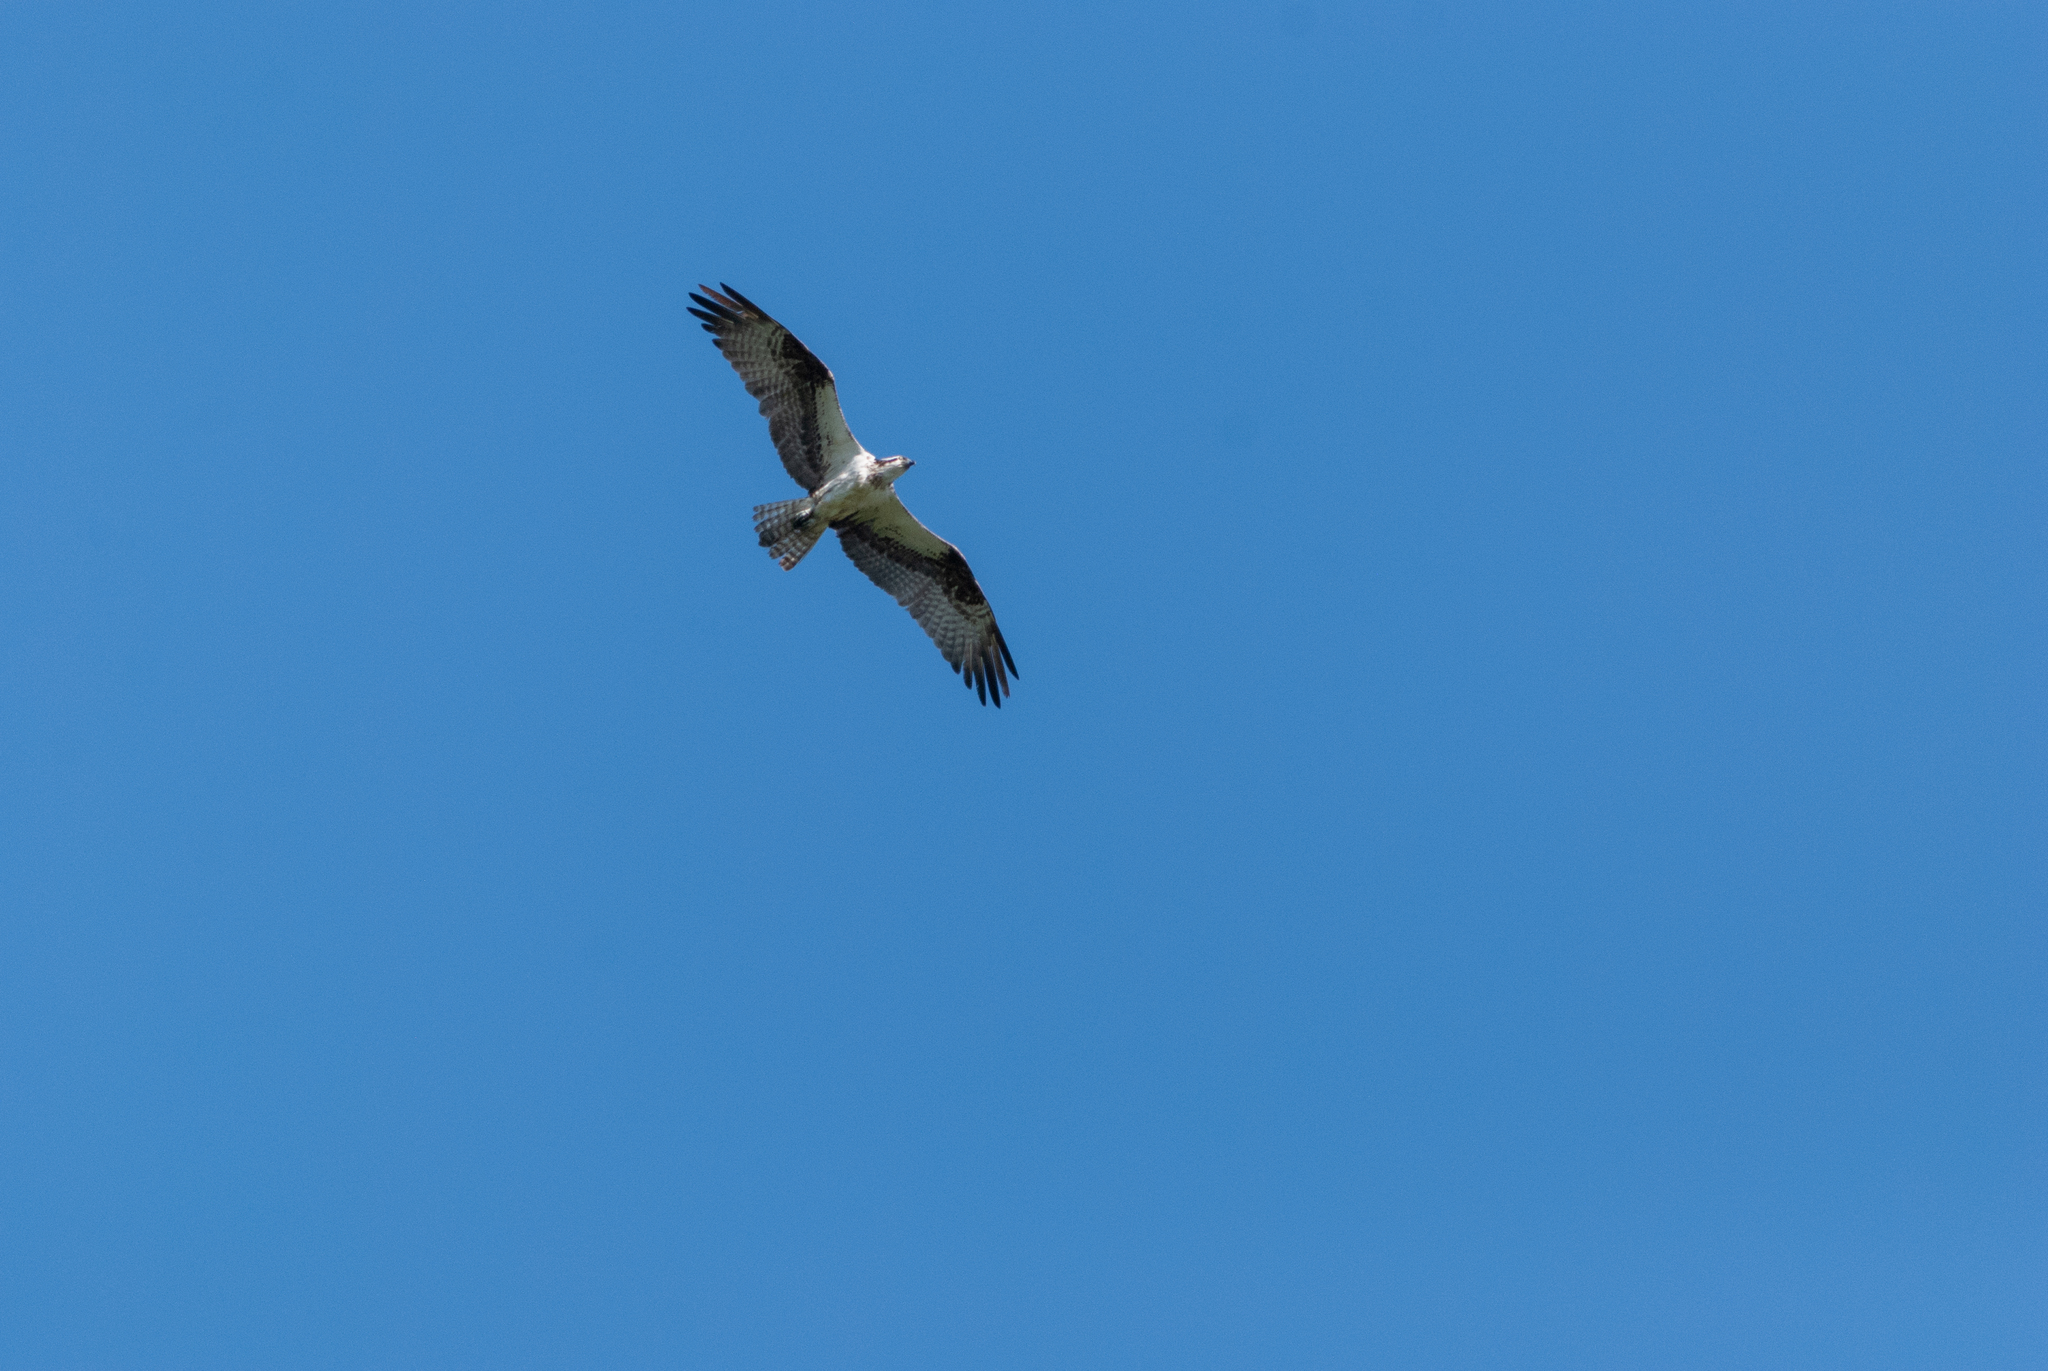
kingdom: Animalia
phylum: Chordata
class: Aves
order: Accipitriformes
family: Pandionidae
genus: Pandion
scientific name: Pandion haliaetus
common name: Osprey
